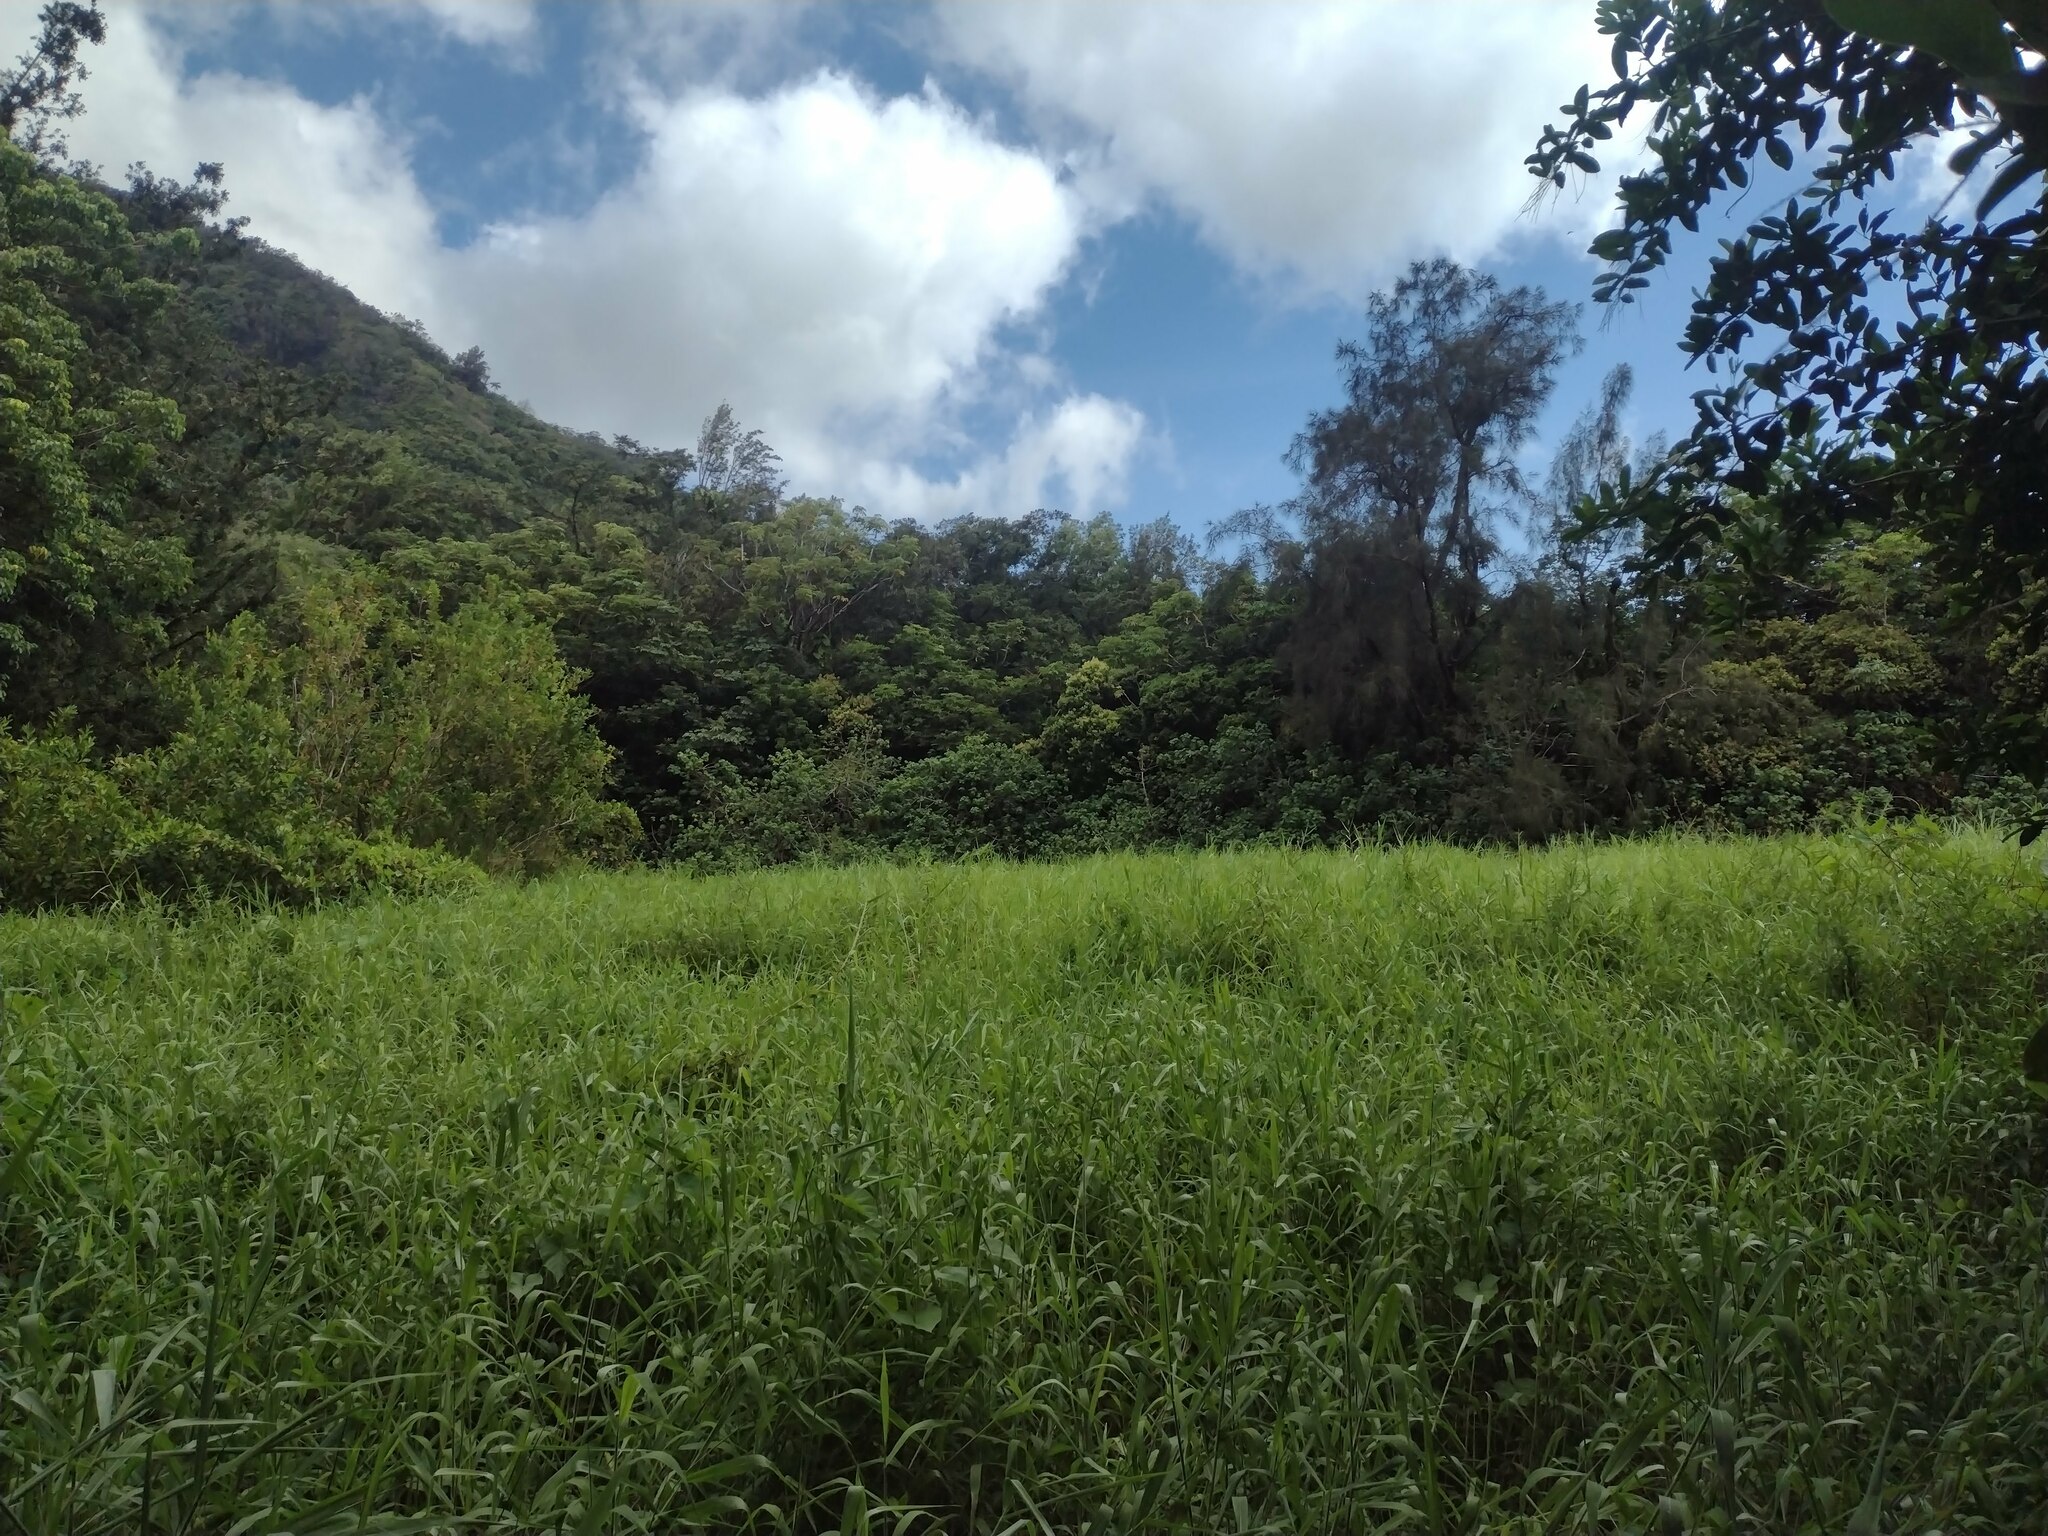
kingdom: Plantae
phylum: Tracheophyta
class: Liliopsida
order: Poales
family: Poaceae
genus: Urochloa
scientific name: Urochloa mutica
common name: Para grass
